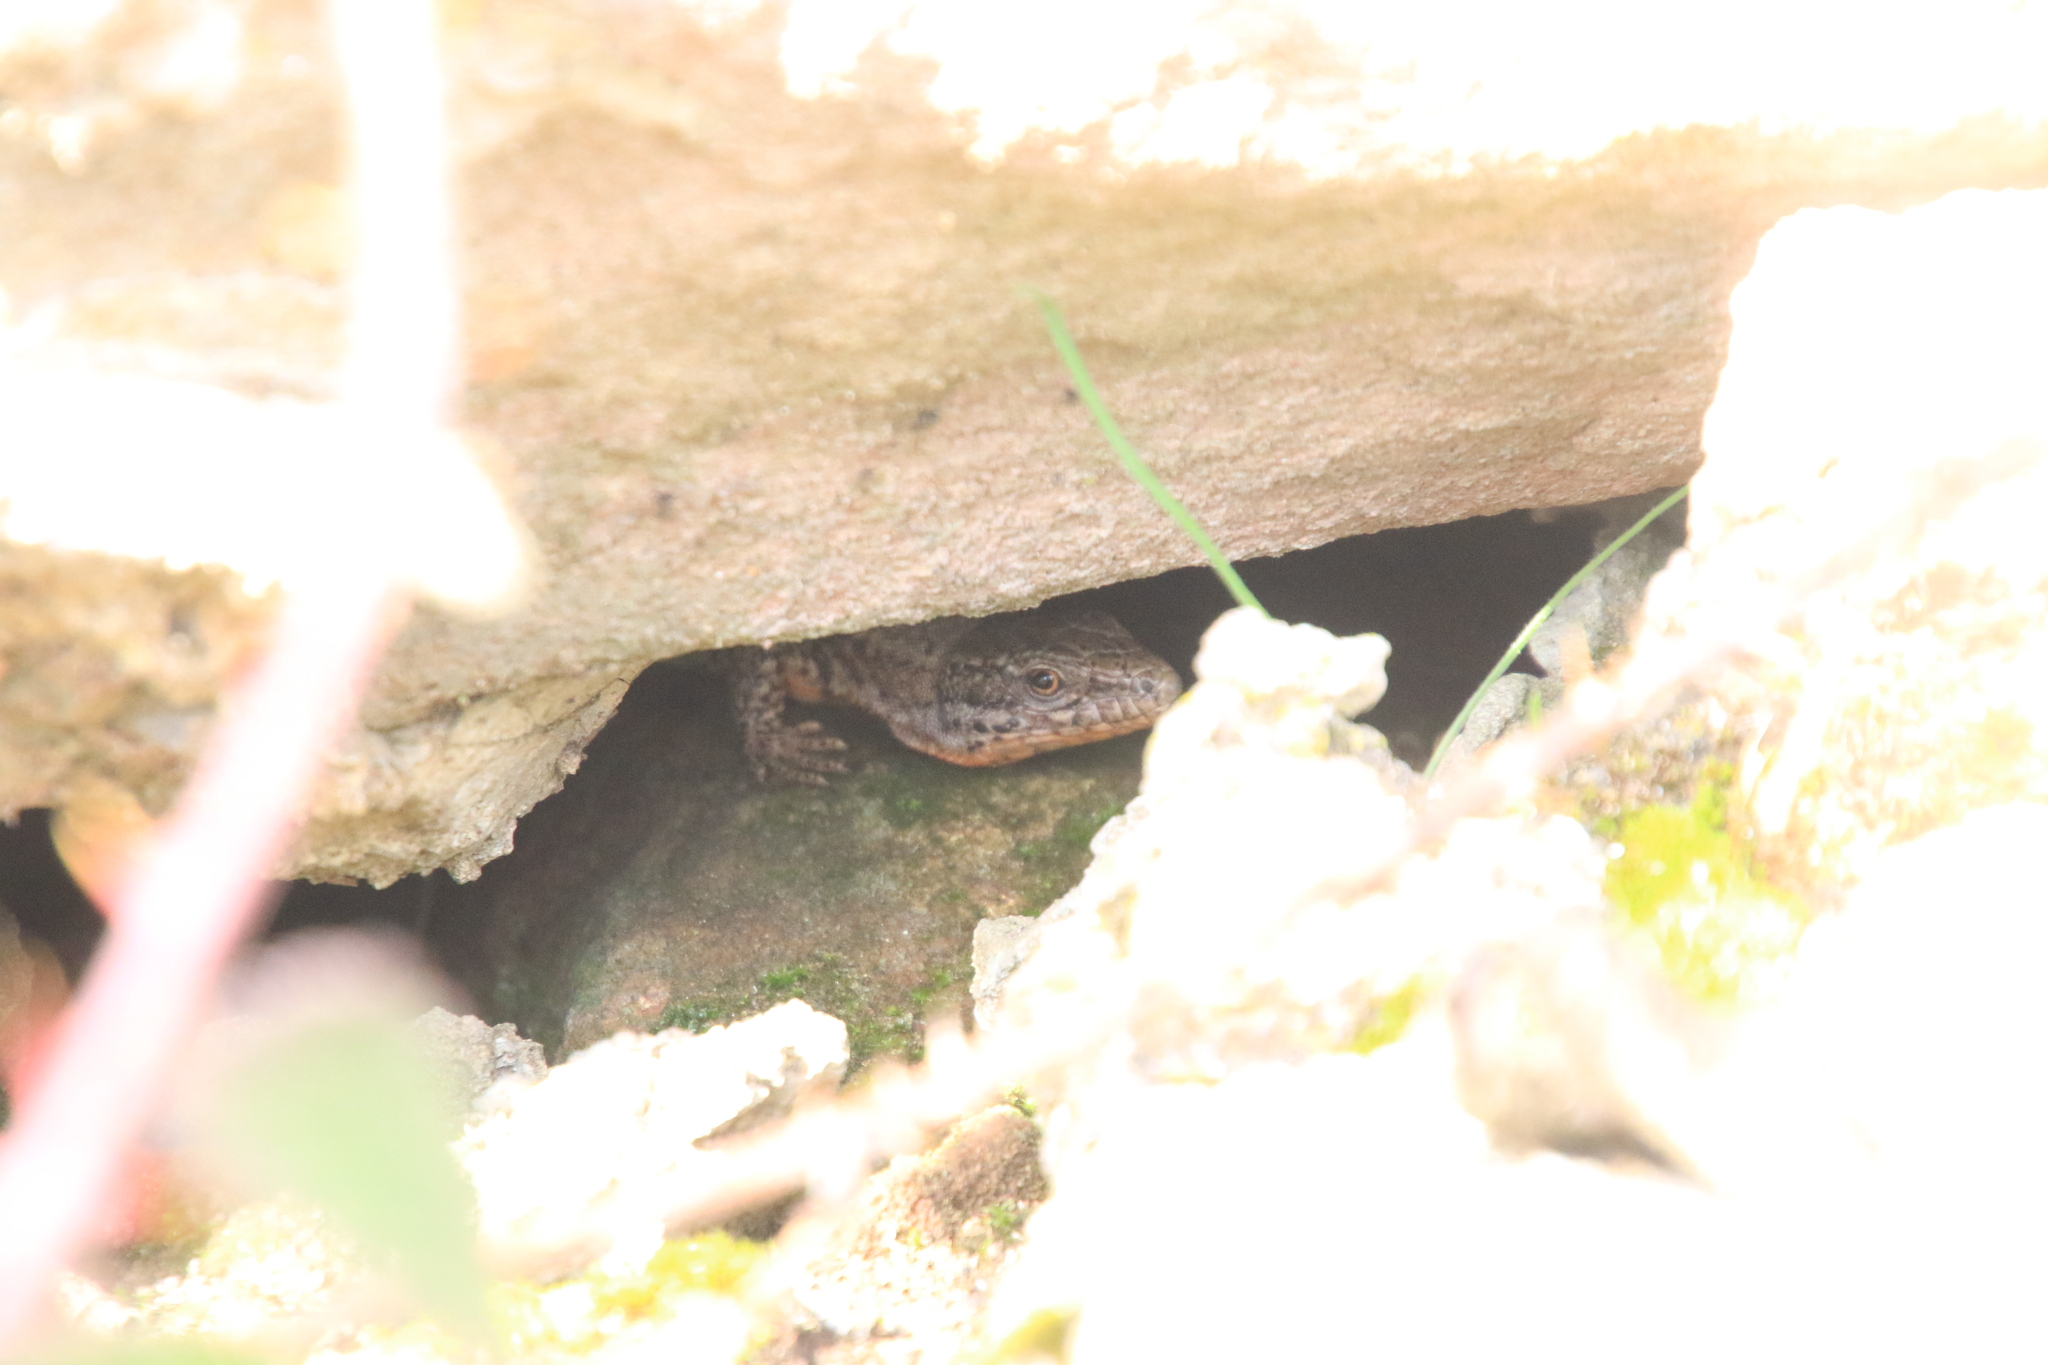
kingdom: Animalia
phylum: Chordata
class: Squamata
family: Lacertidae
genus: Podarcis
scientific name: Podarcis muralis
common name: Common wall lizard
